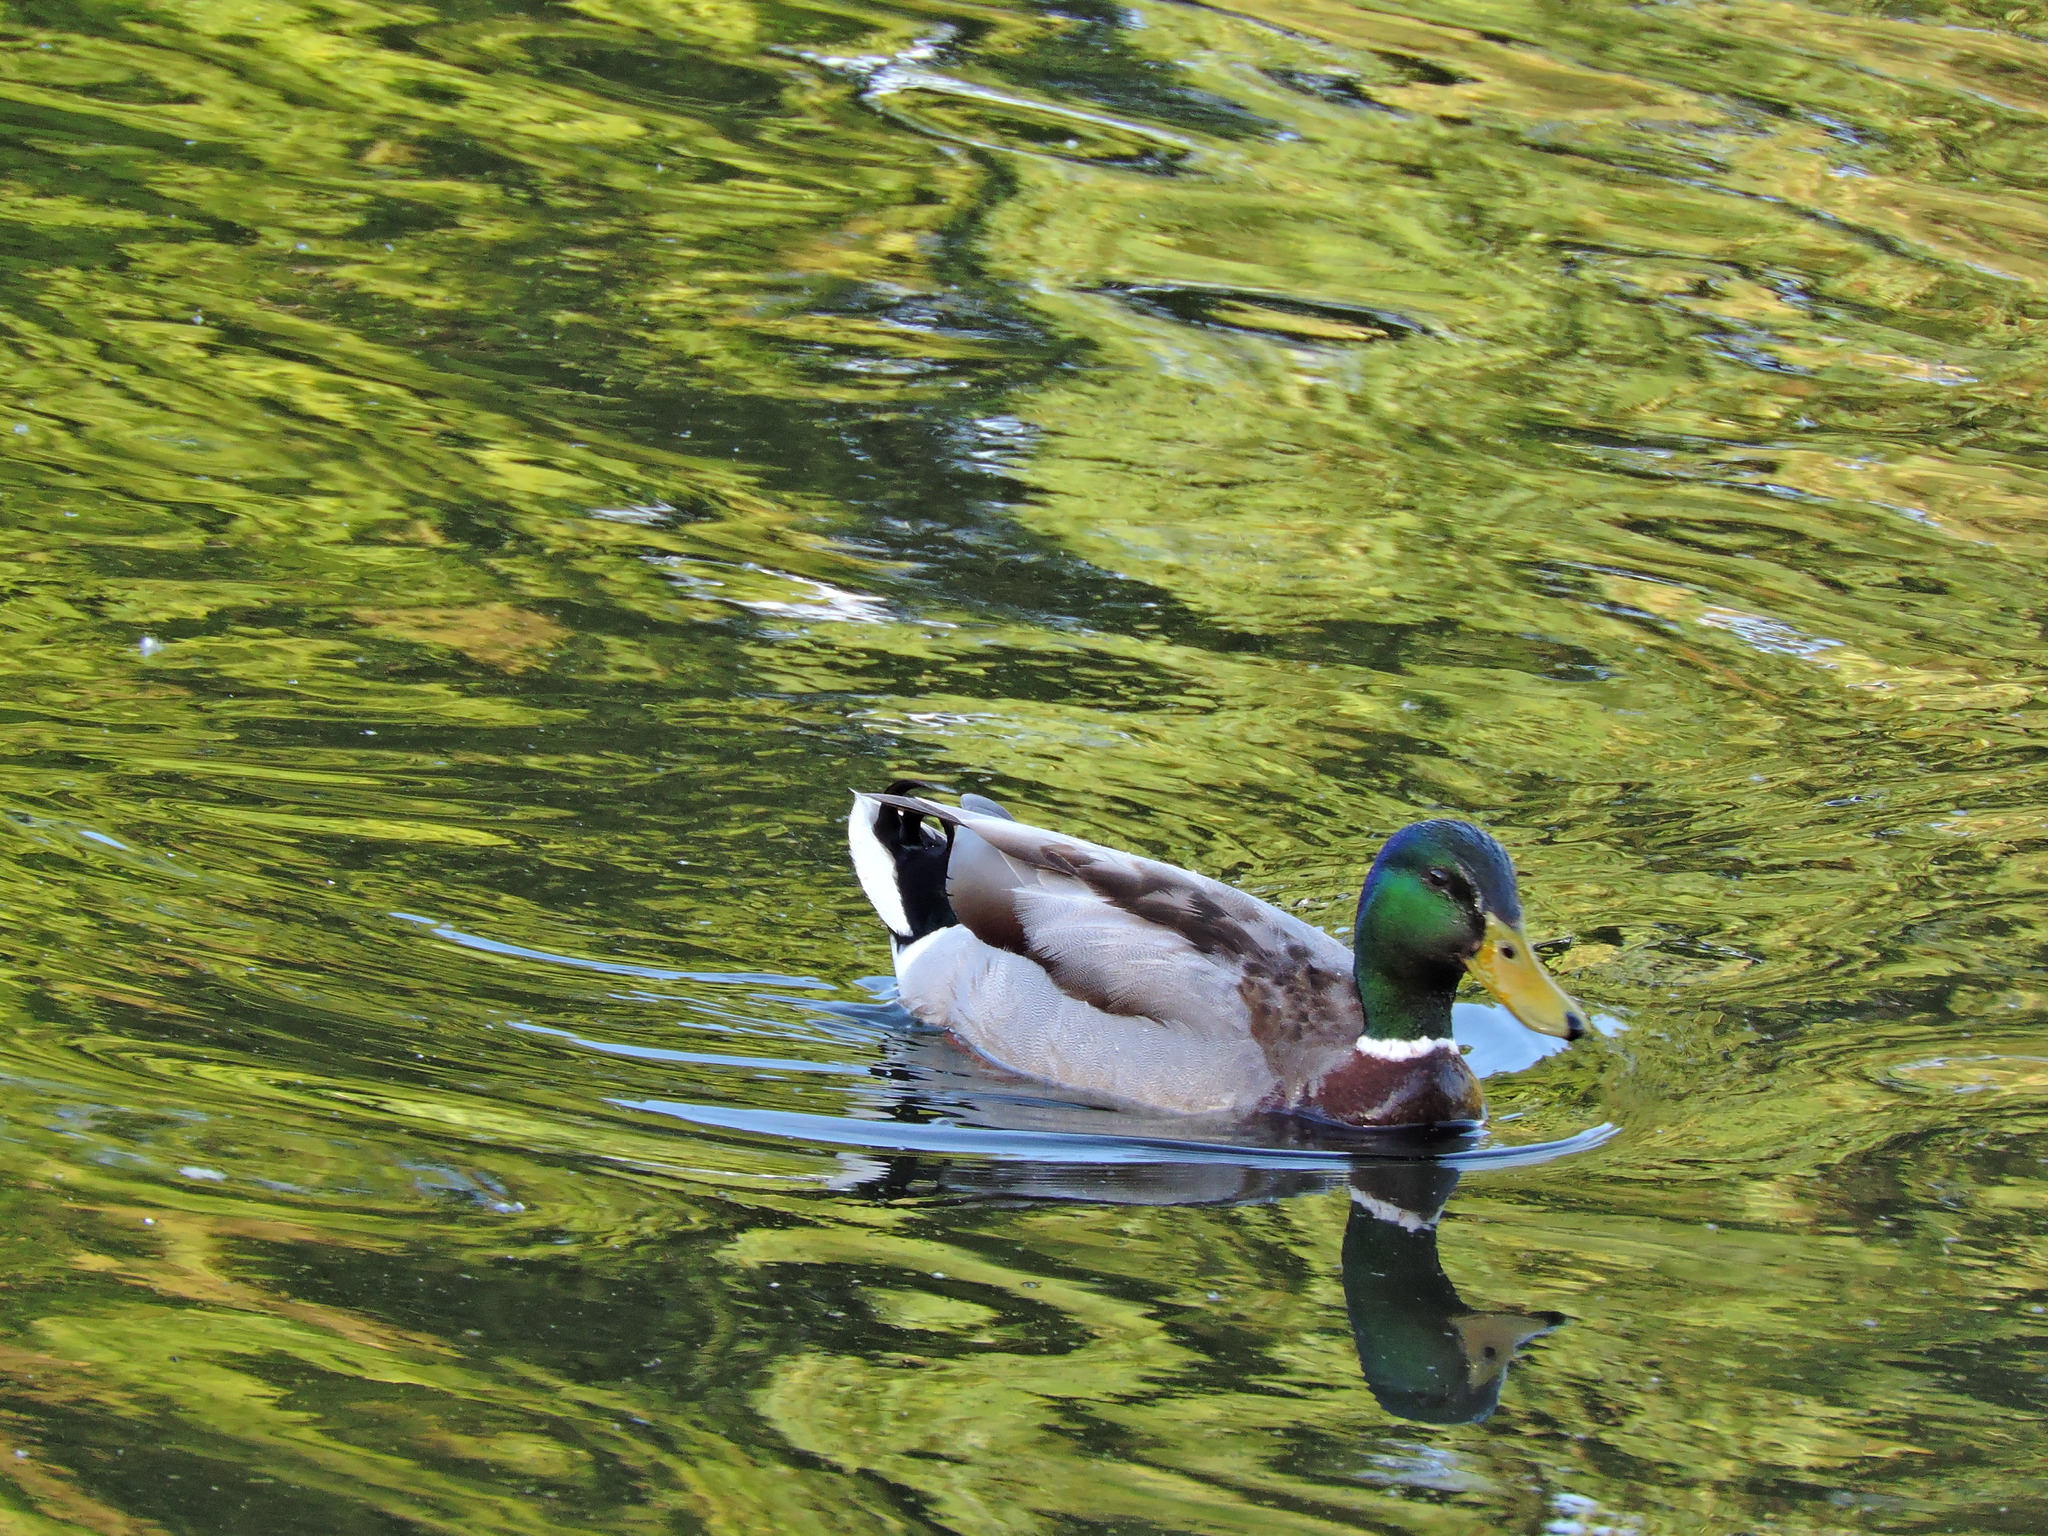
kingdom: Animalia
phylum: Chordata
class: Aves
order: Anseriformes
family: Anatidae
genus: Anas
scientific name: Anas platyrhynchos
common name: Mallard
